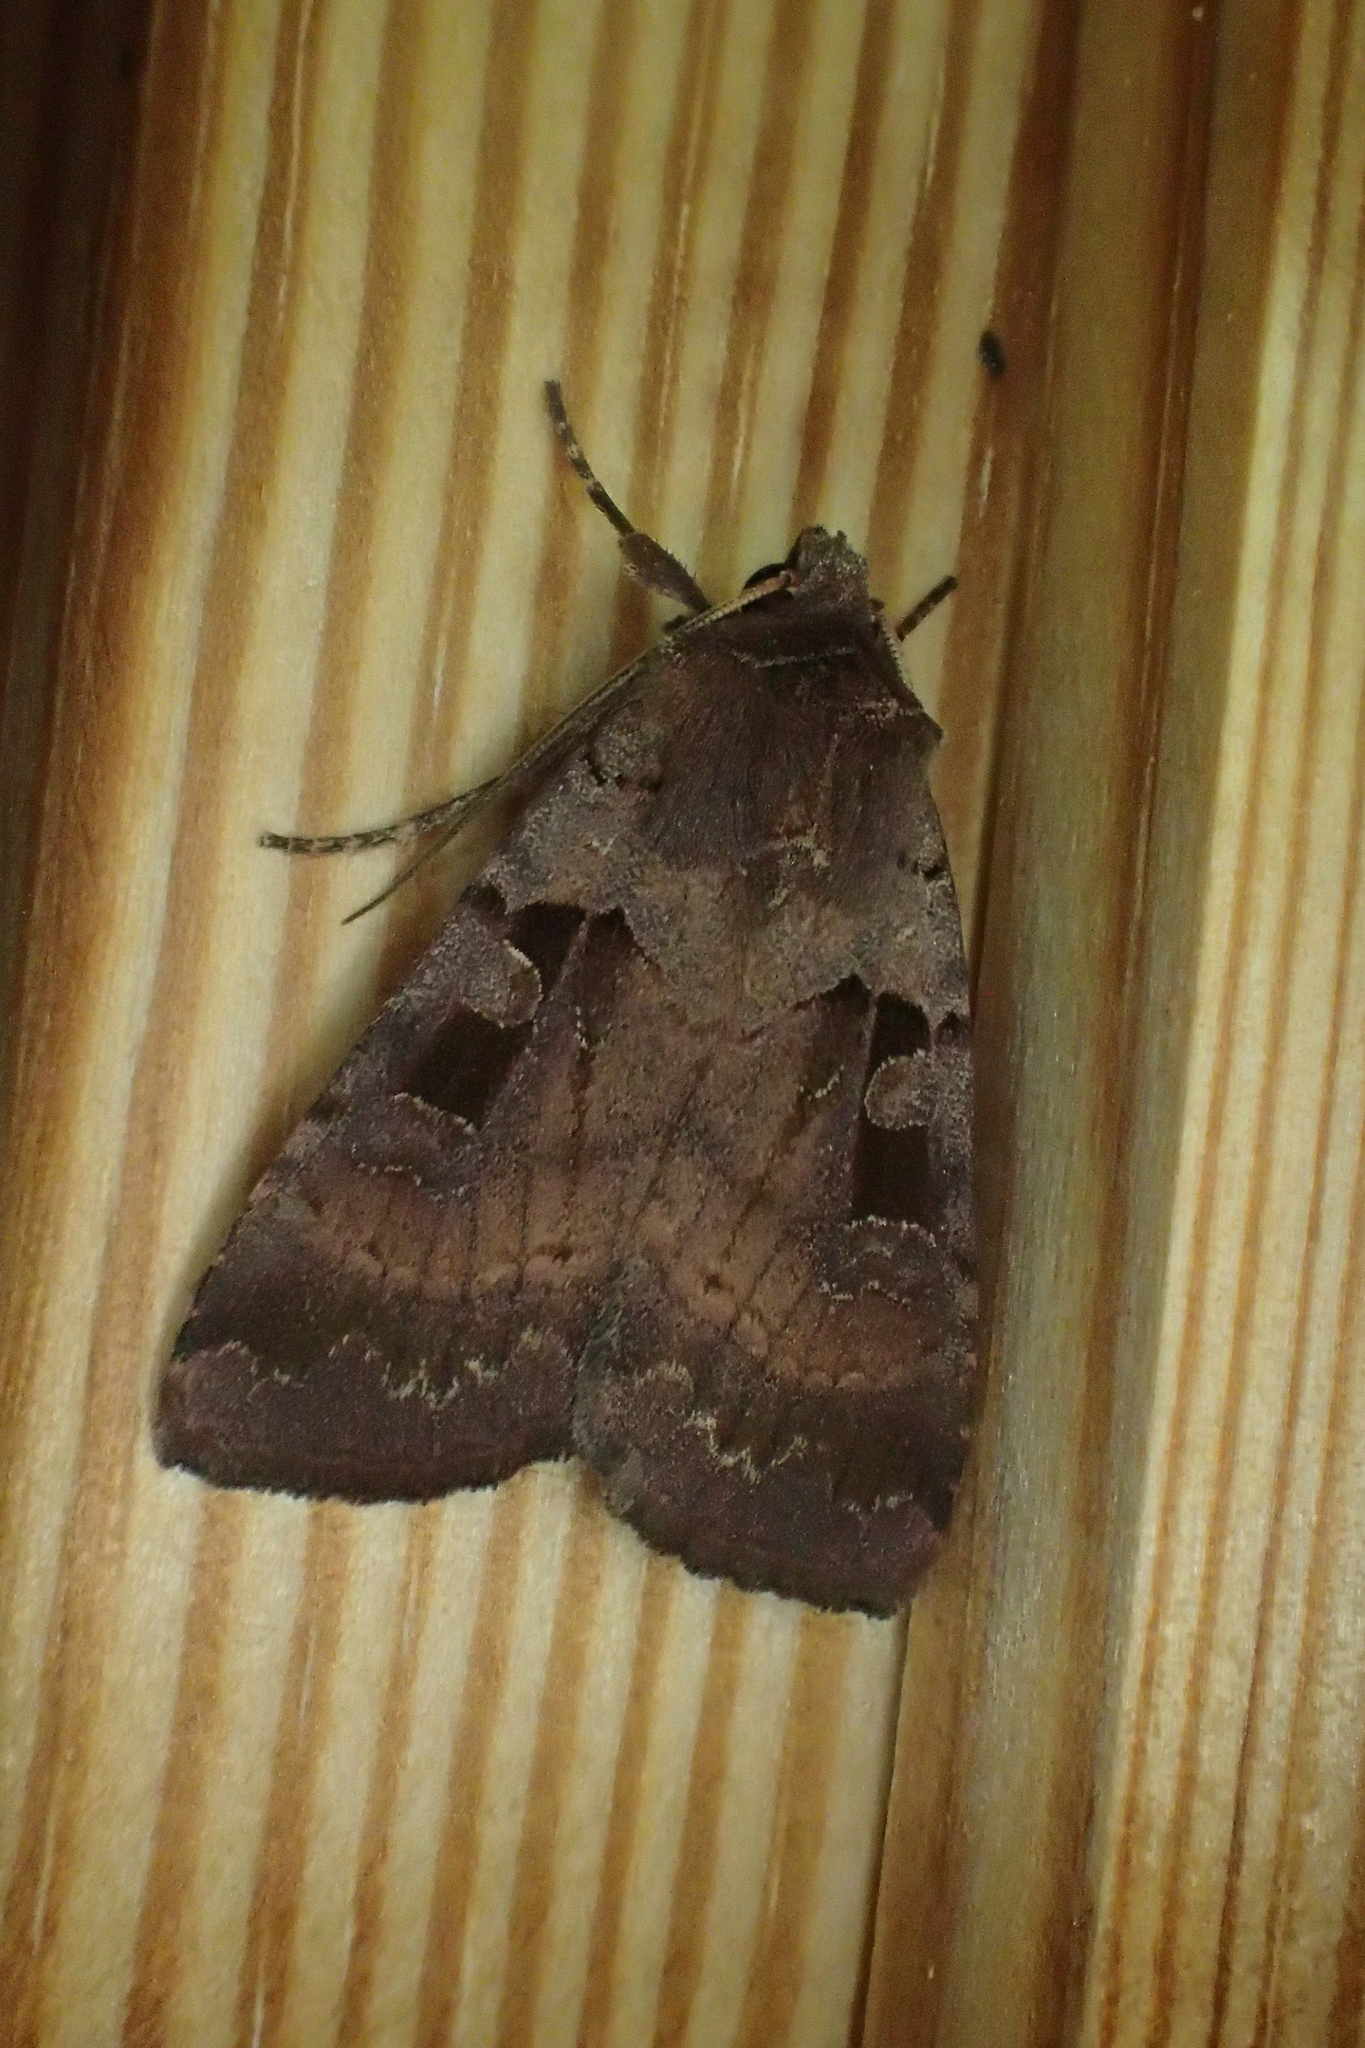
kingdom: Animalia
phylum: Arthropoda
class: Insecta
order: Lepidoptera
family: Noctuidae
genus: Xestia
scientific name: Xestia stigmatica
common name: Square-spotted clay
